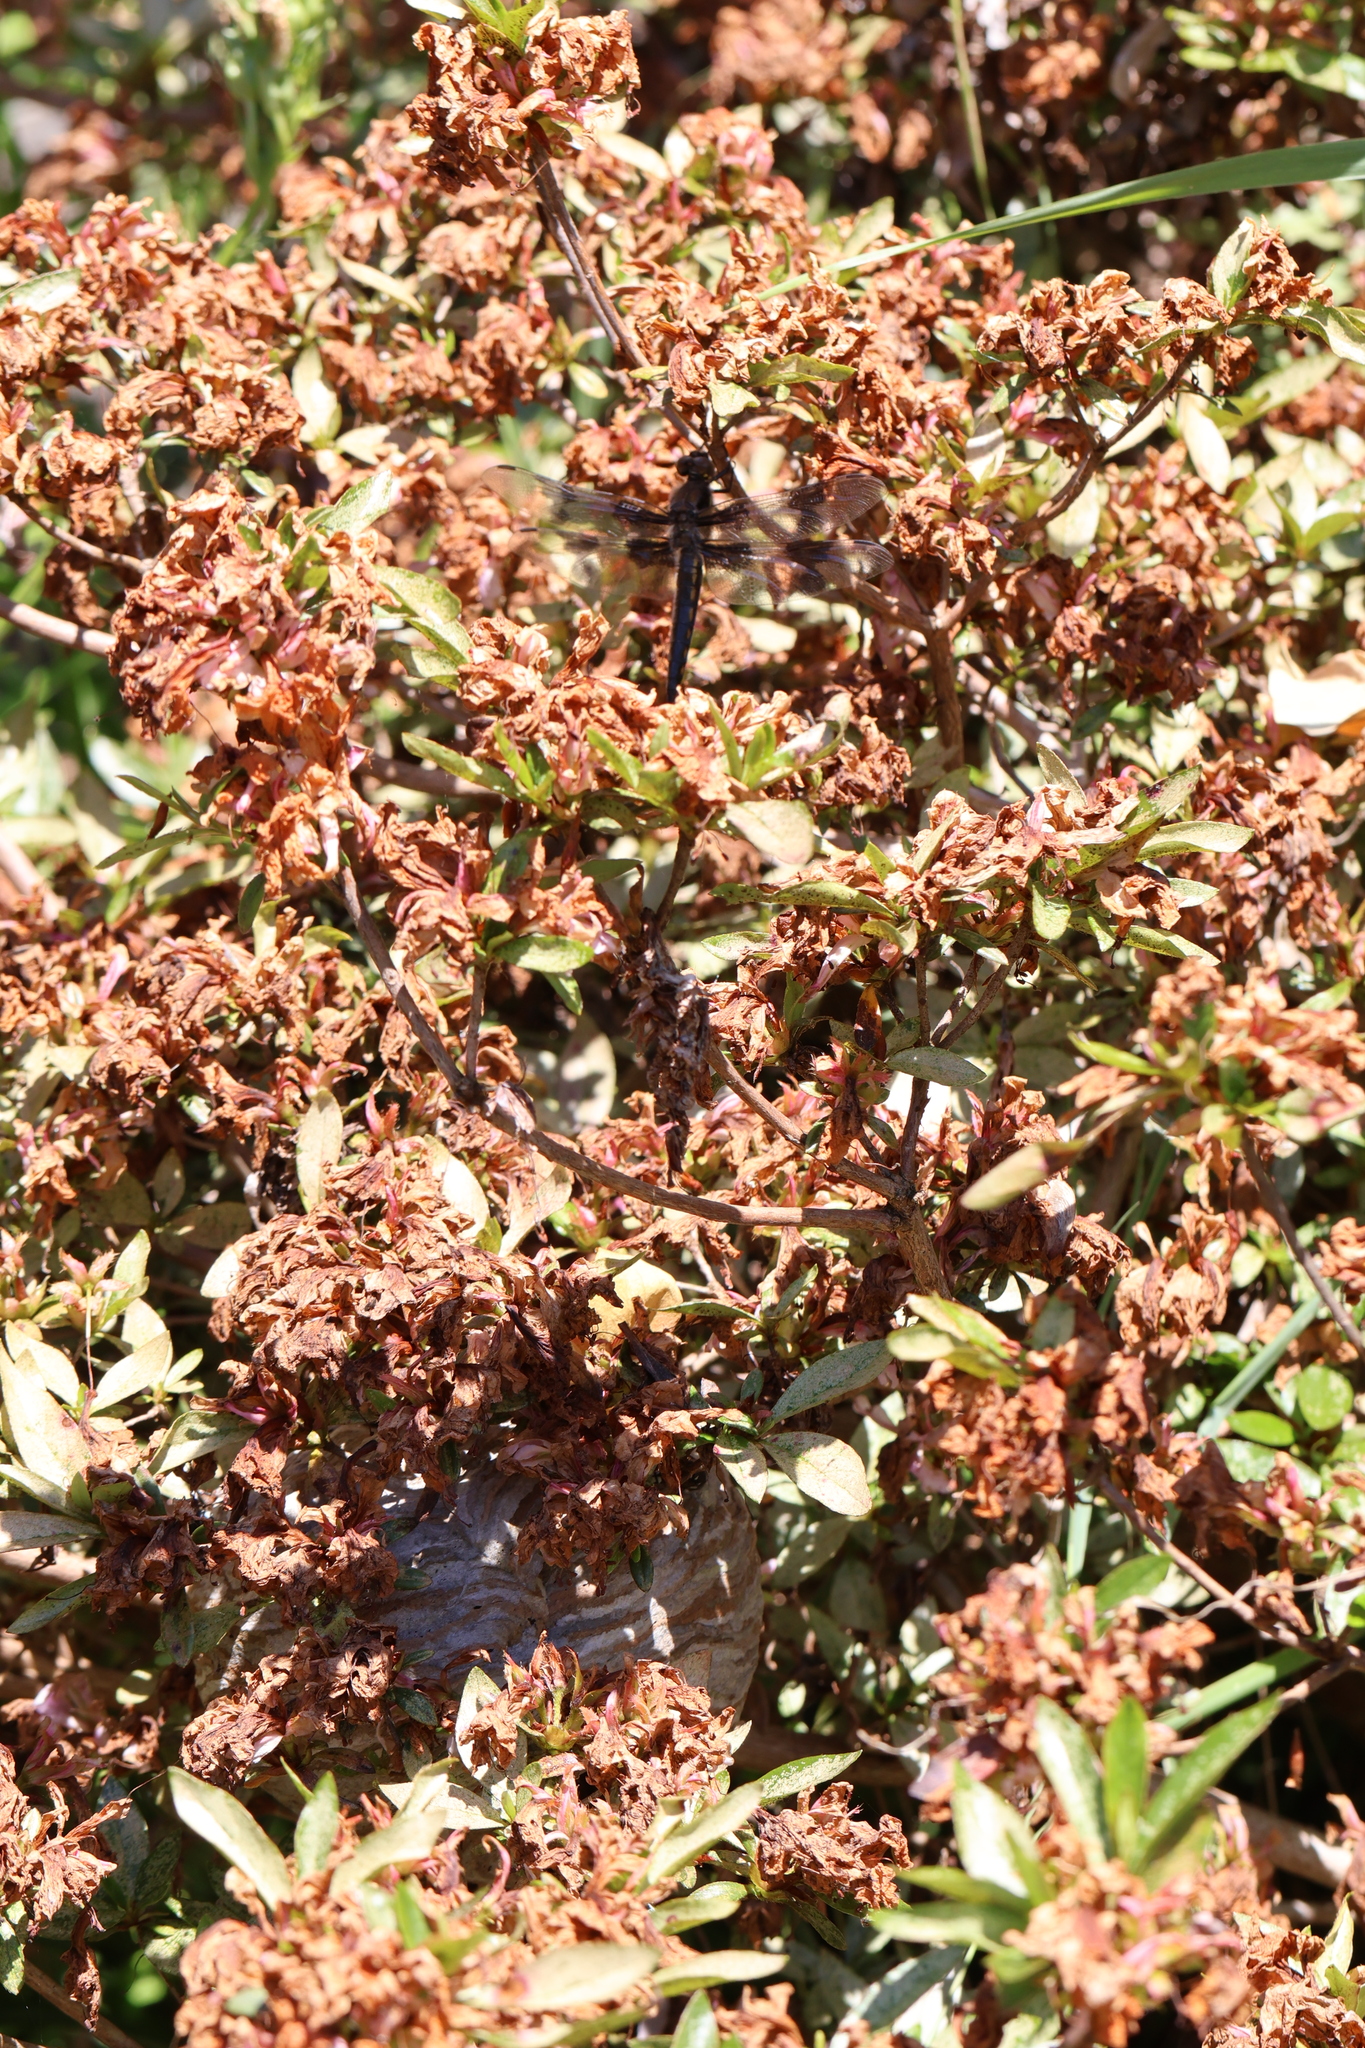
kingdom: Animalia
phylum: Arthropoda
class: Insecta
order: Odonata
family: Libellulidae
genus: Libellula
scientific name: Libellula forensis
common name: Eight-spotted skimmer
